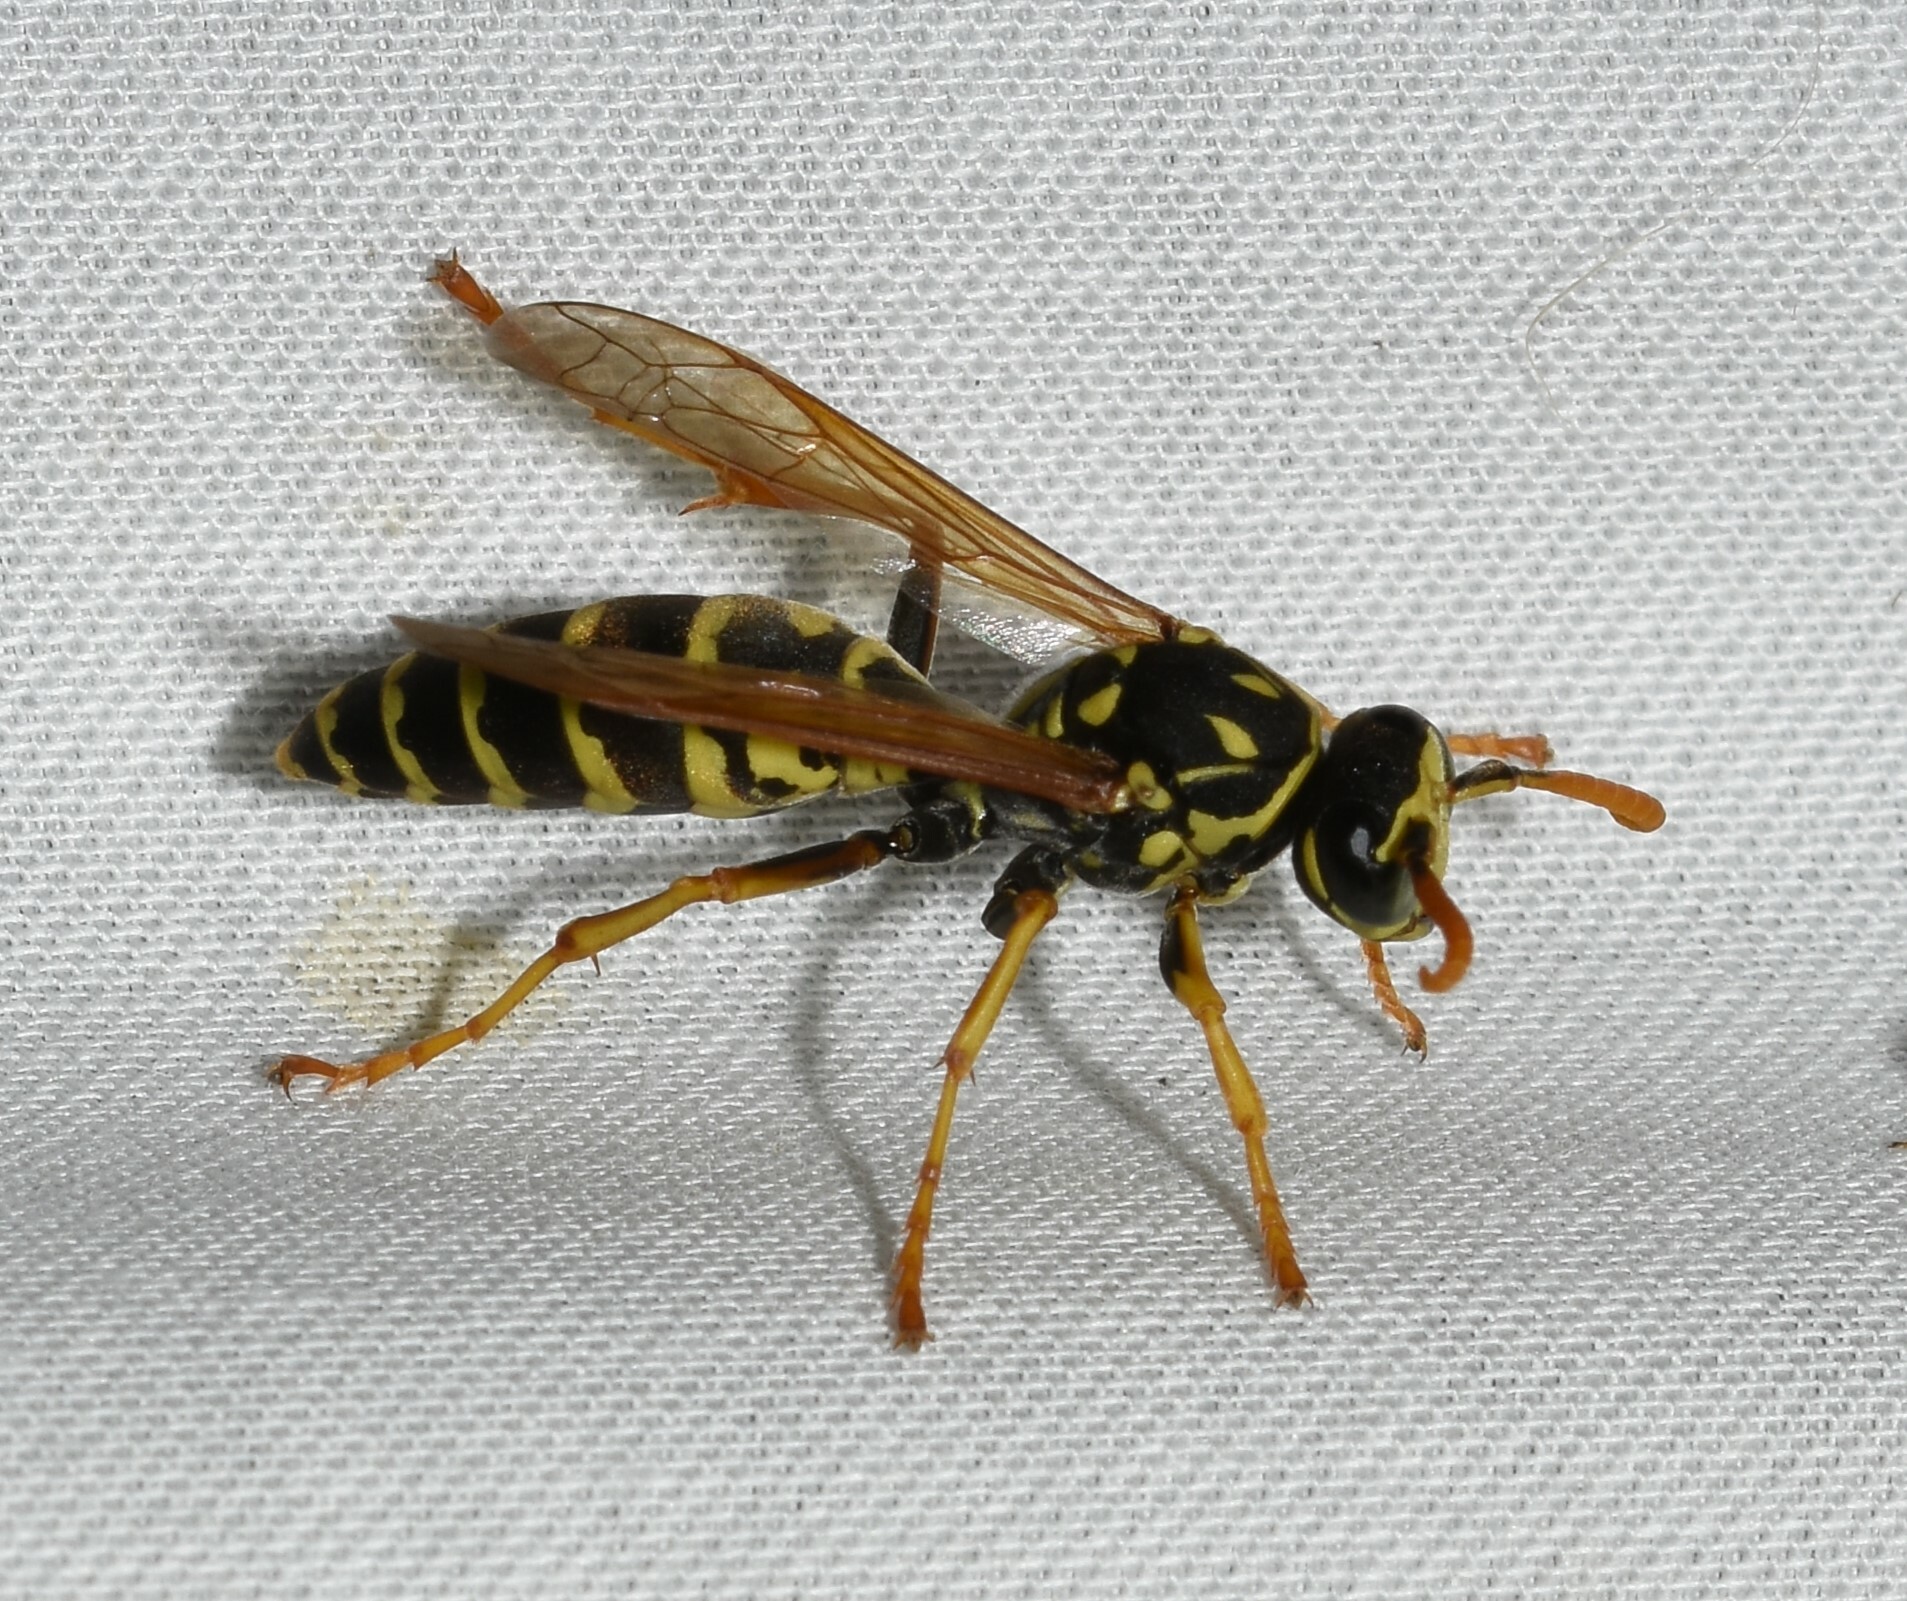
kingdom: Animalia
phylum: Arthropoda
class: Insecta
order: Hymenoptera
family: Eumenidae
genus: Polistes
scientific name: Polistes dominula
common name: Paper wasp
